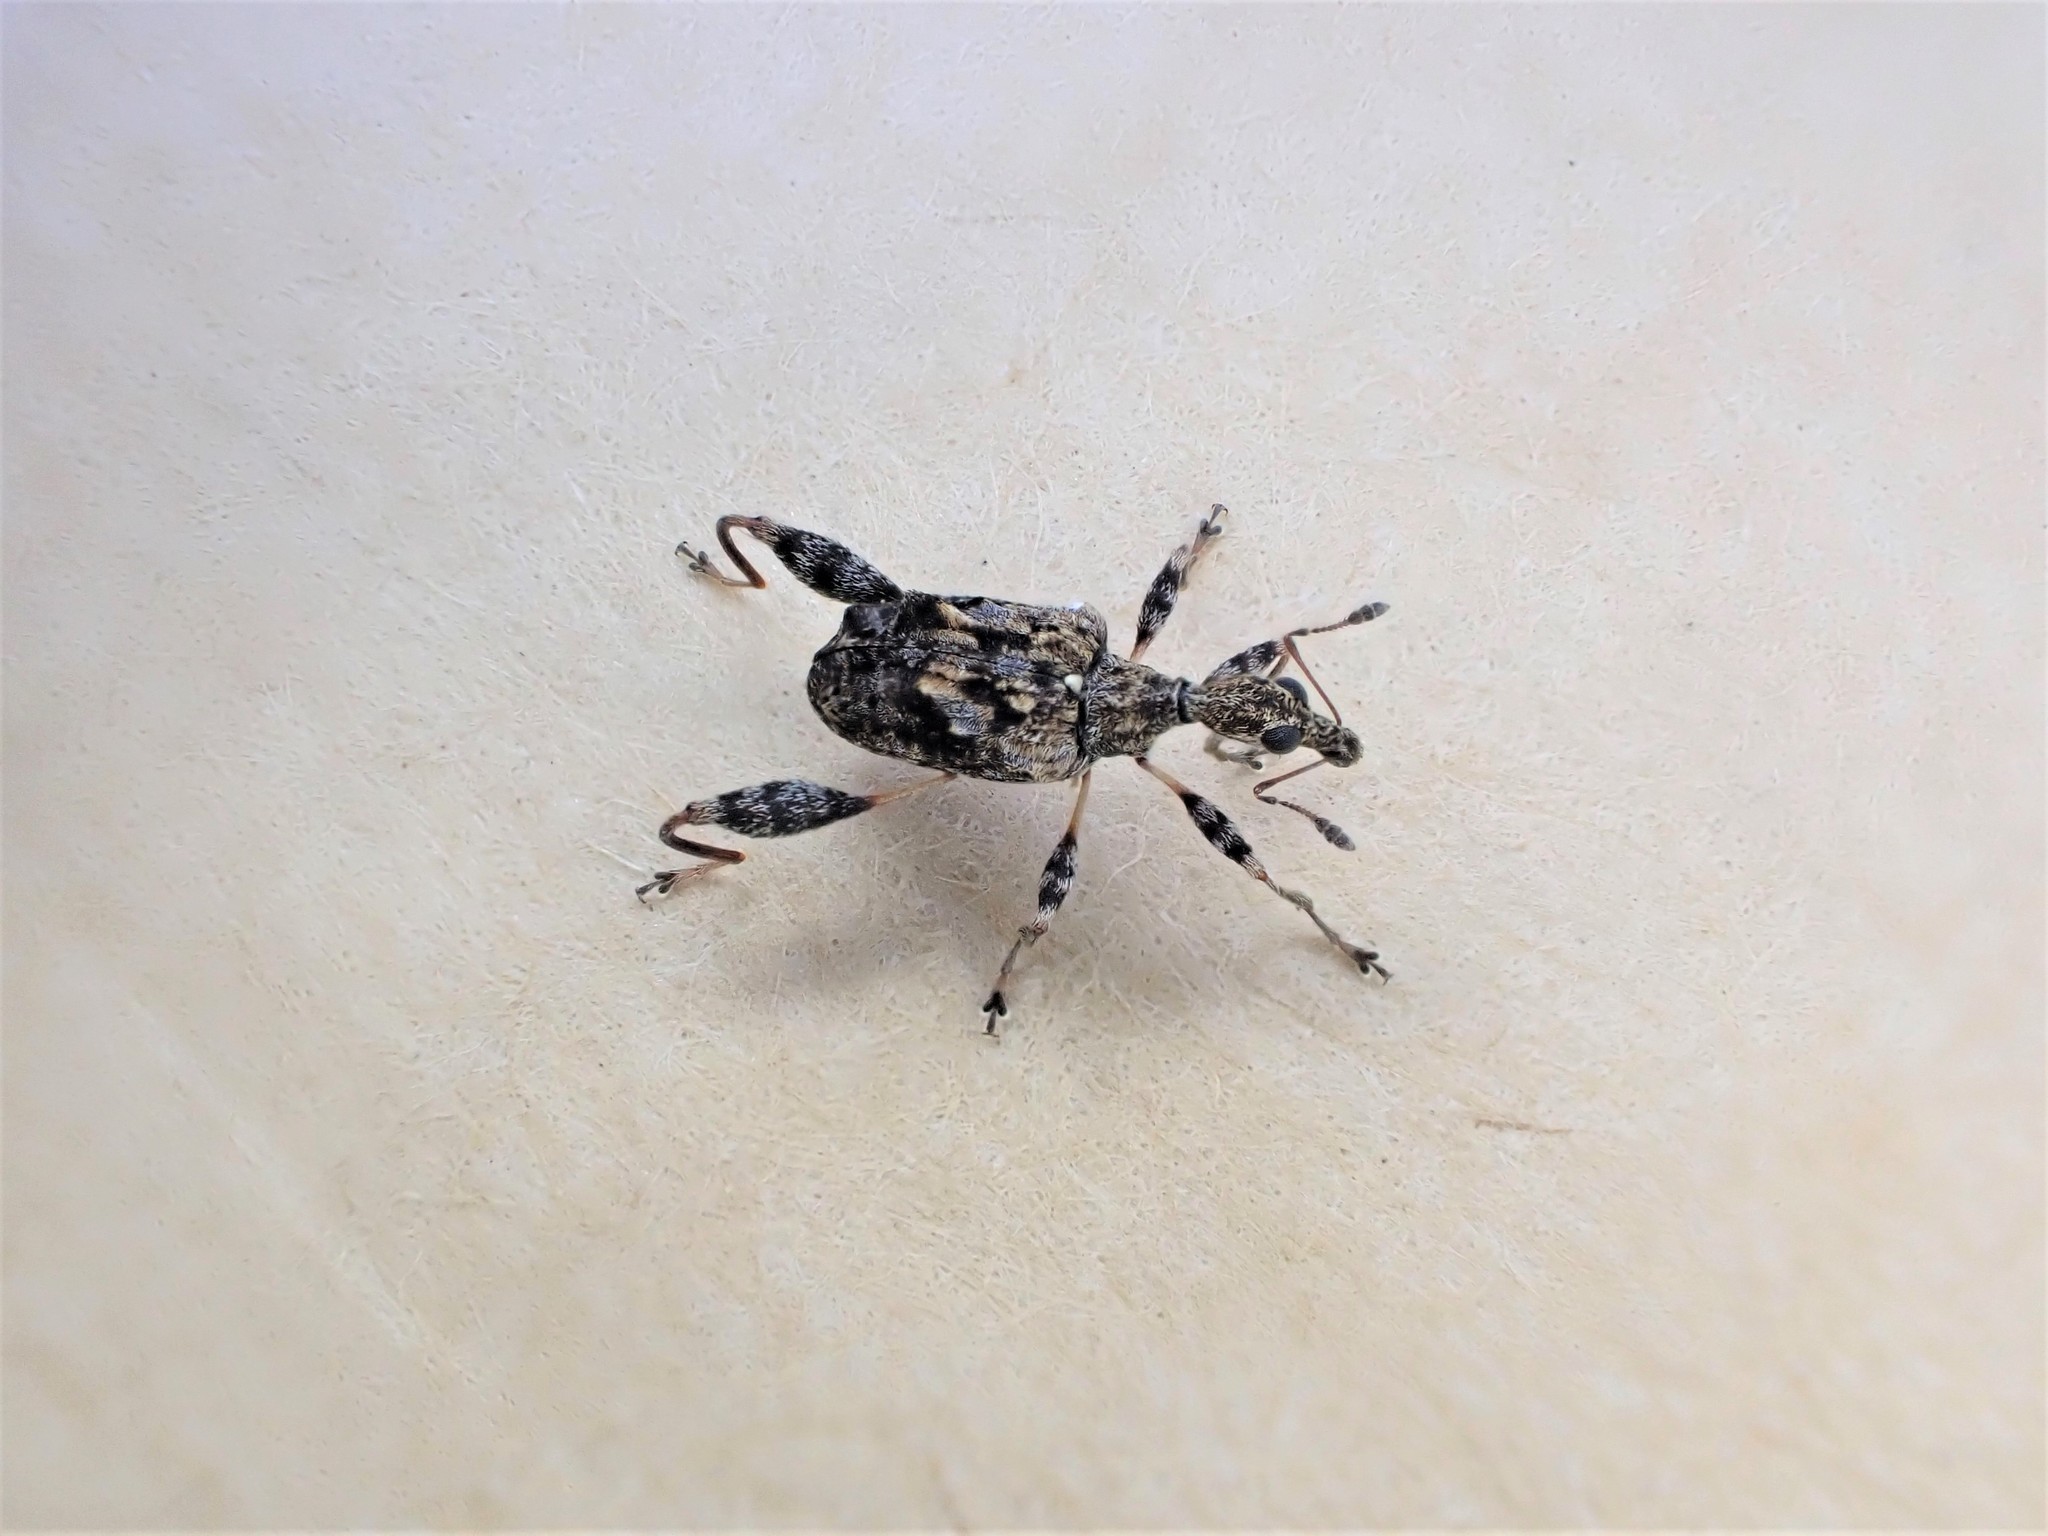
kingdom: Animalia
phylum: Arthropoda
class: Insecta
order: Coleoptera
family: Curculionidae
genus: Stephanorhynchus
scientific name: Stephanorhynchus lawsoni
